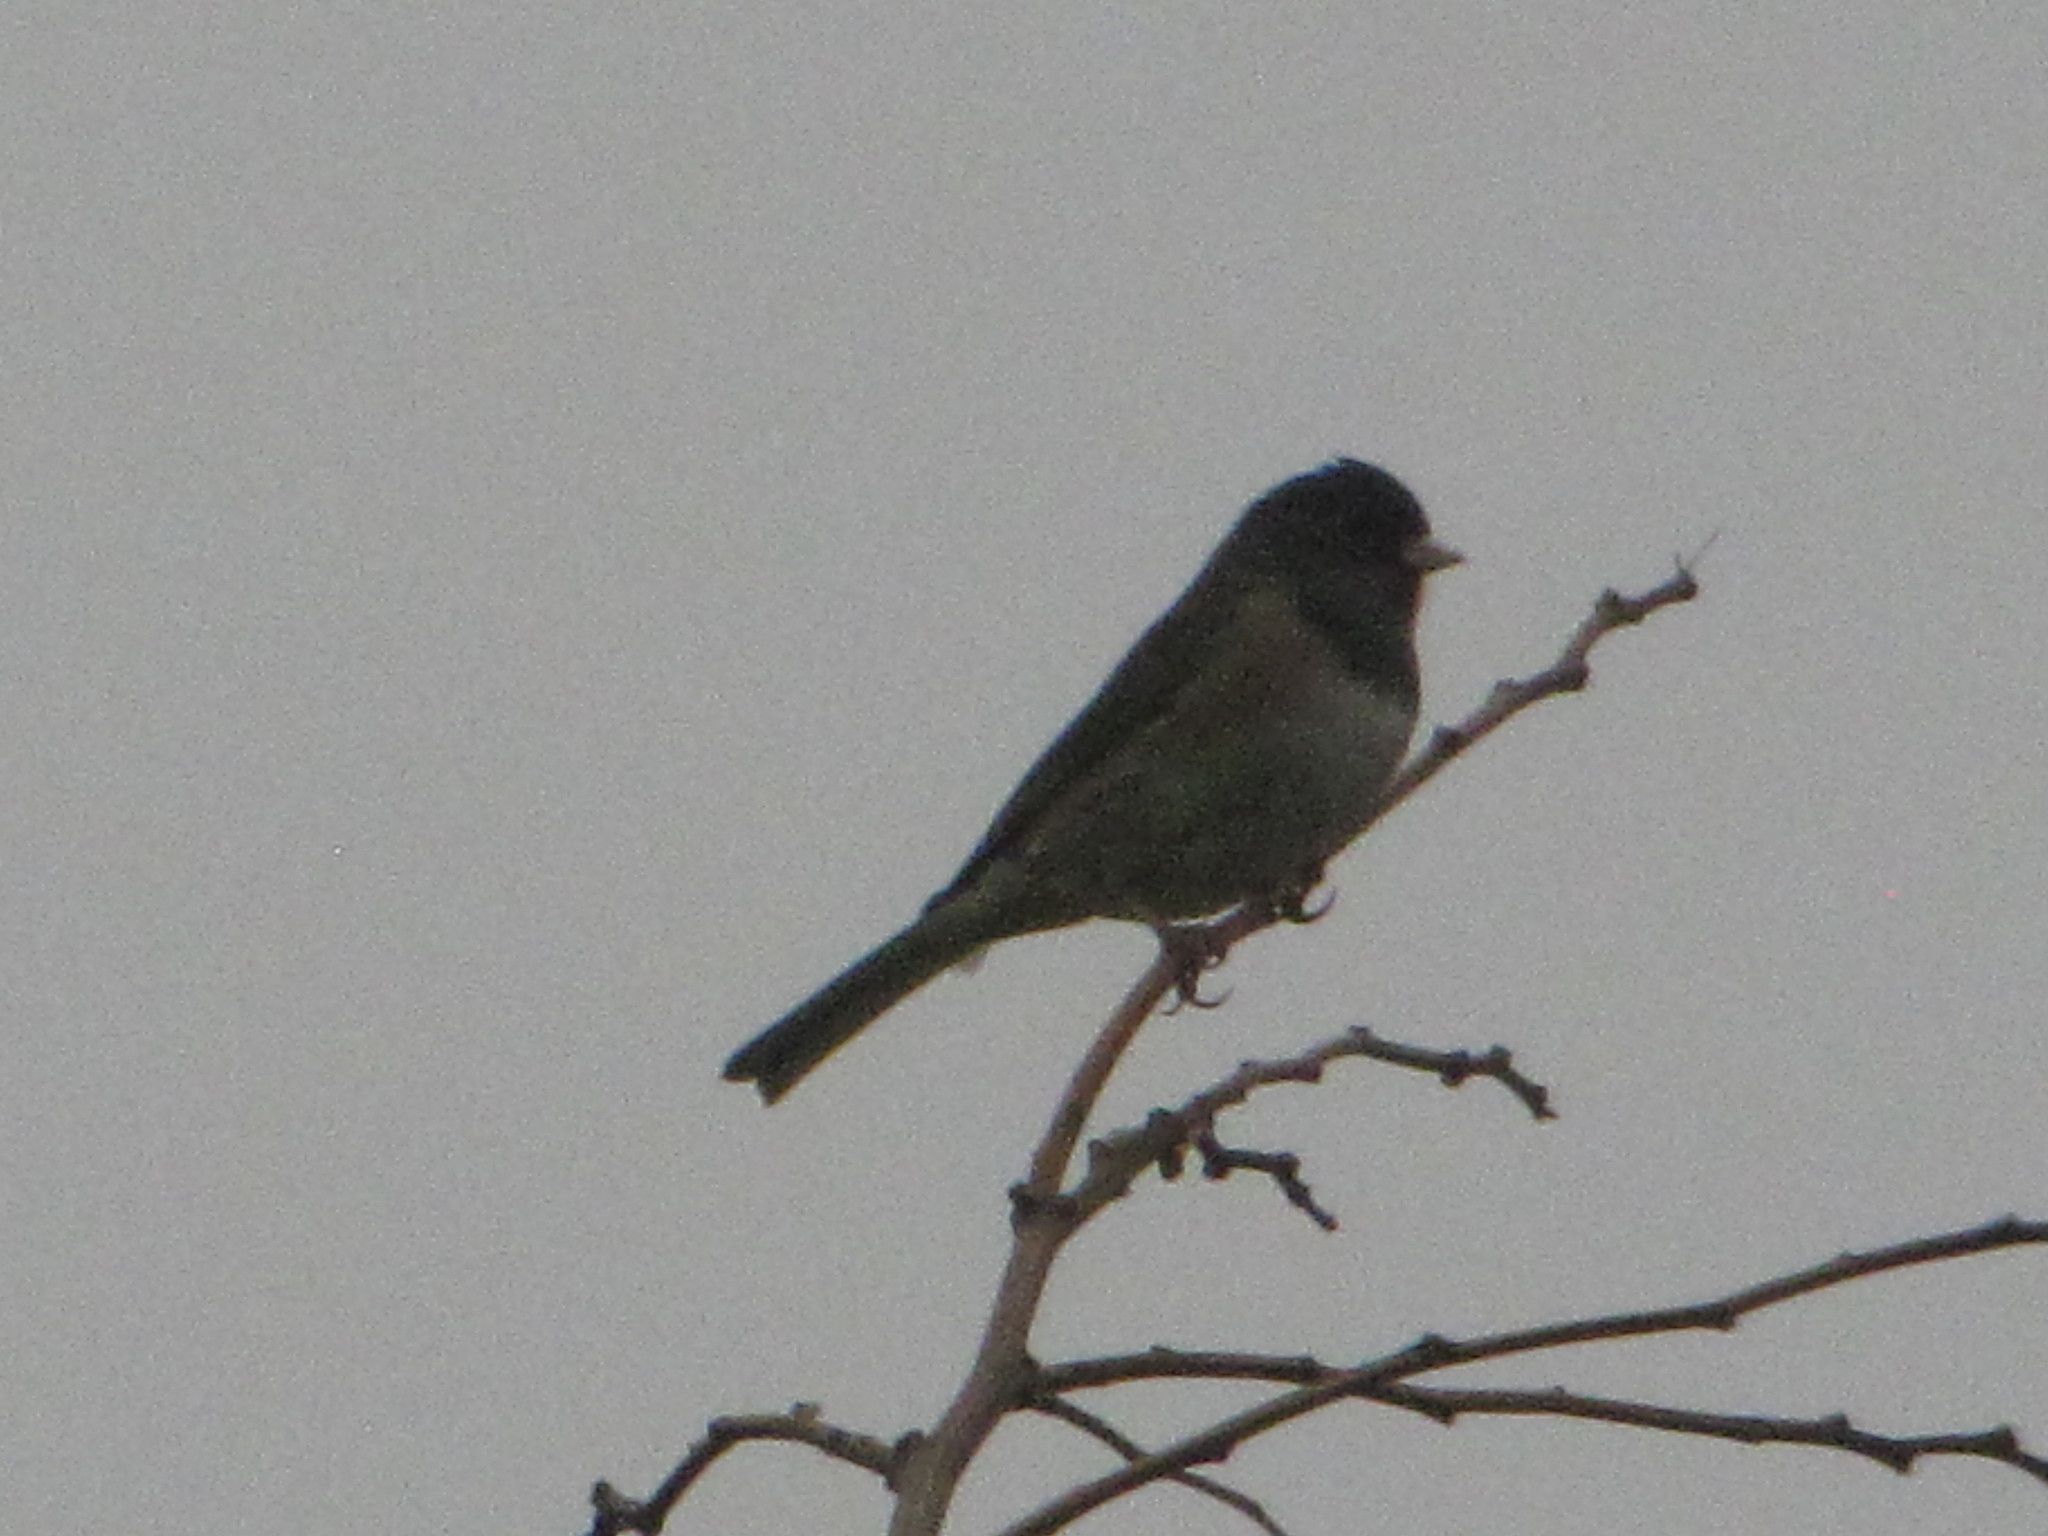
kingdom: Animalia
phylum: Chordata
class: Aves
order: Passeriformes
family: Passerellidae
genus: Junco
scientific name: Junco hyemalis
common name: Dark-eyed junco
